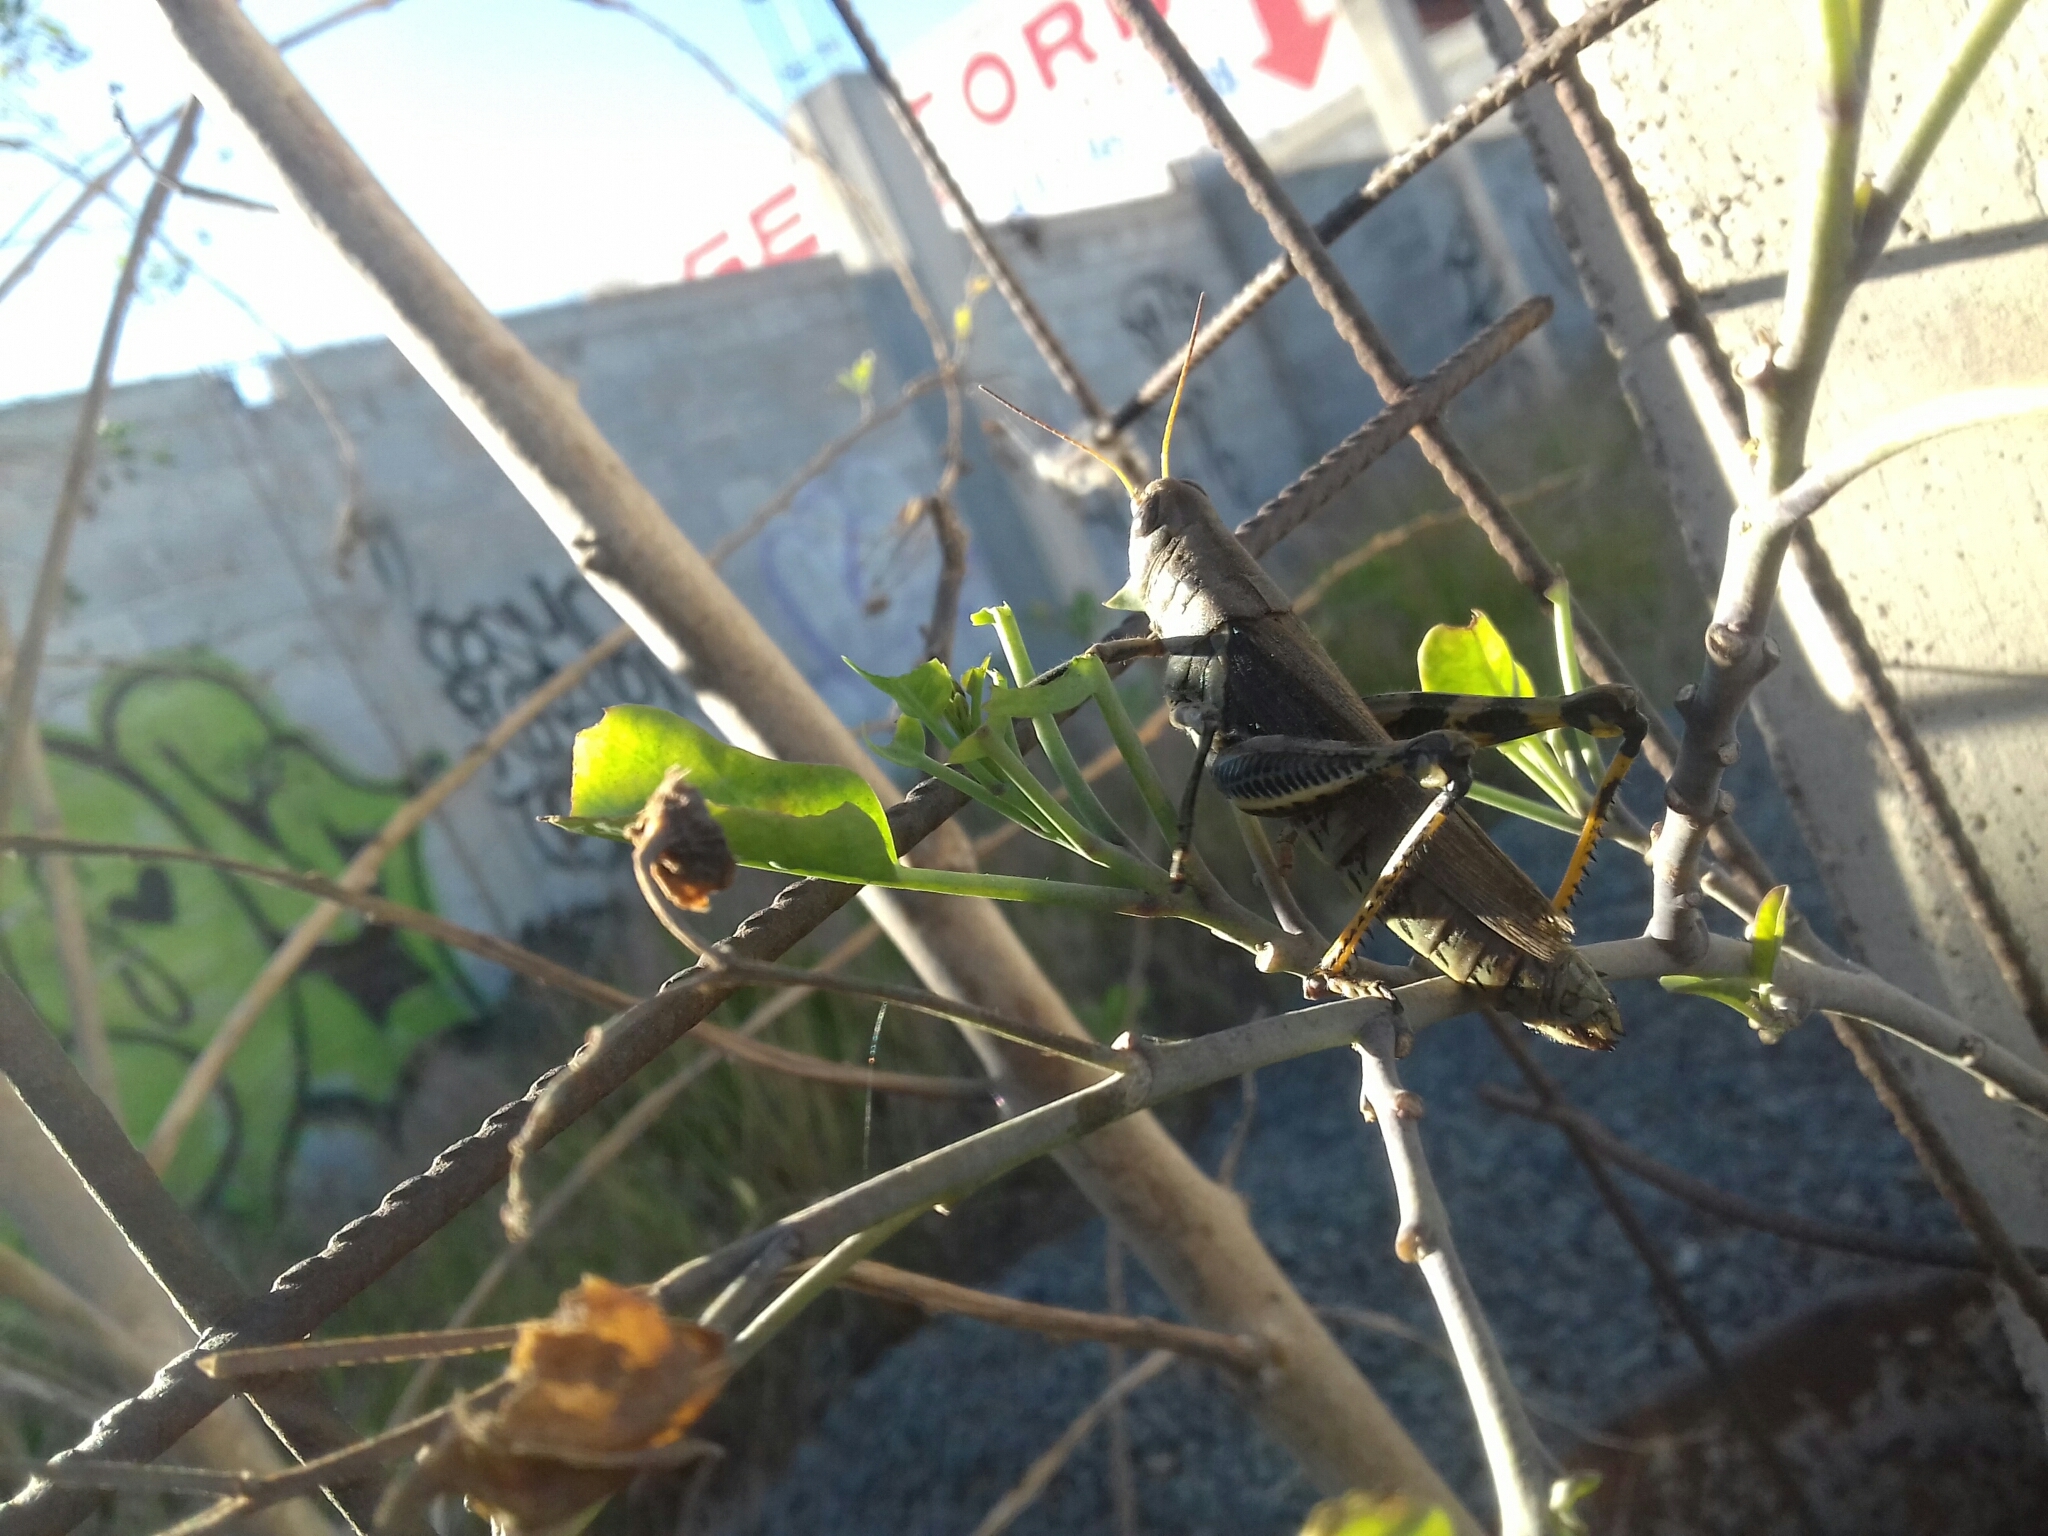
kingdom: Animalia
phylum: Arthropoda
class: Insecta
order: Orthoptera
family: Acrididae
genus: Melanoplus
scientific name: Melanoplus differentialis
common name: Differential grasshopper
